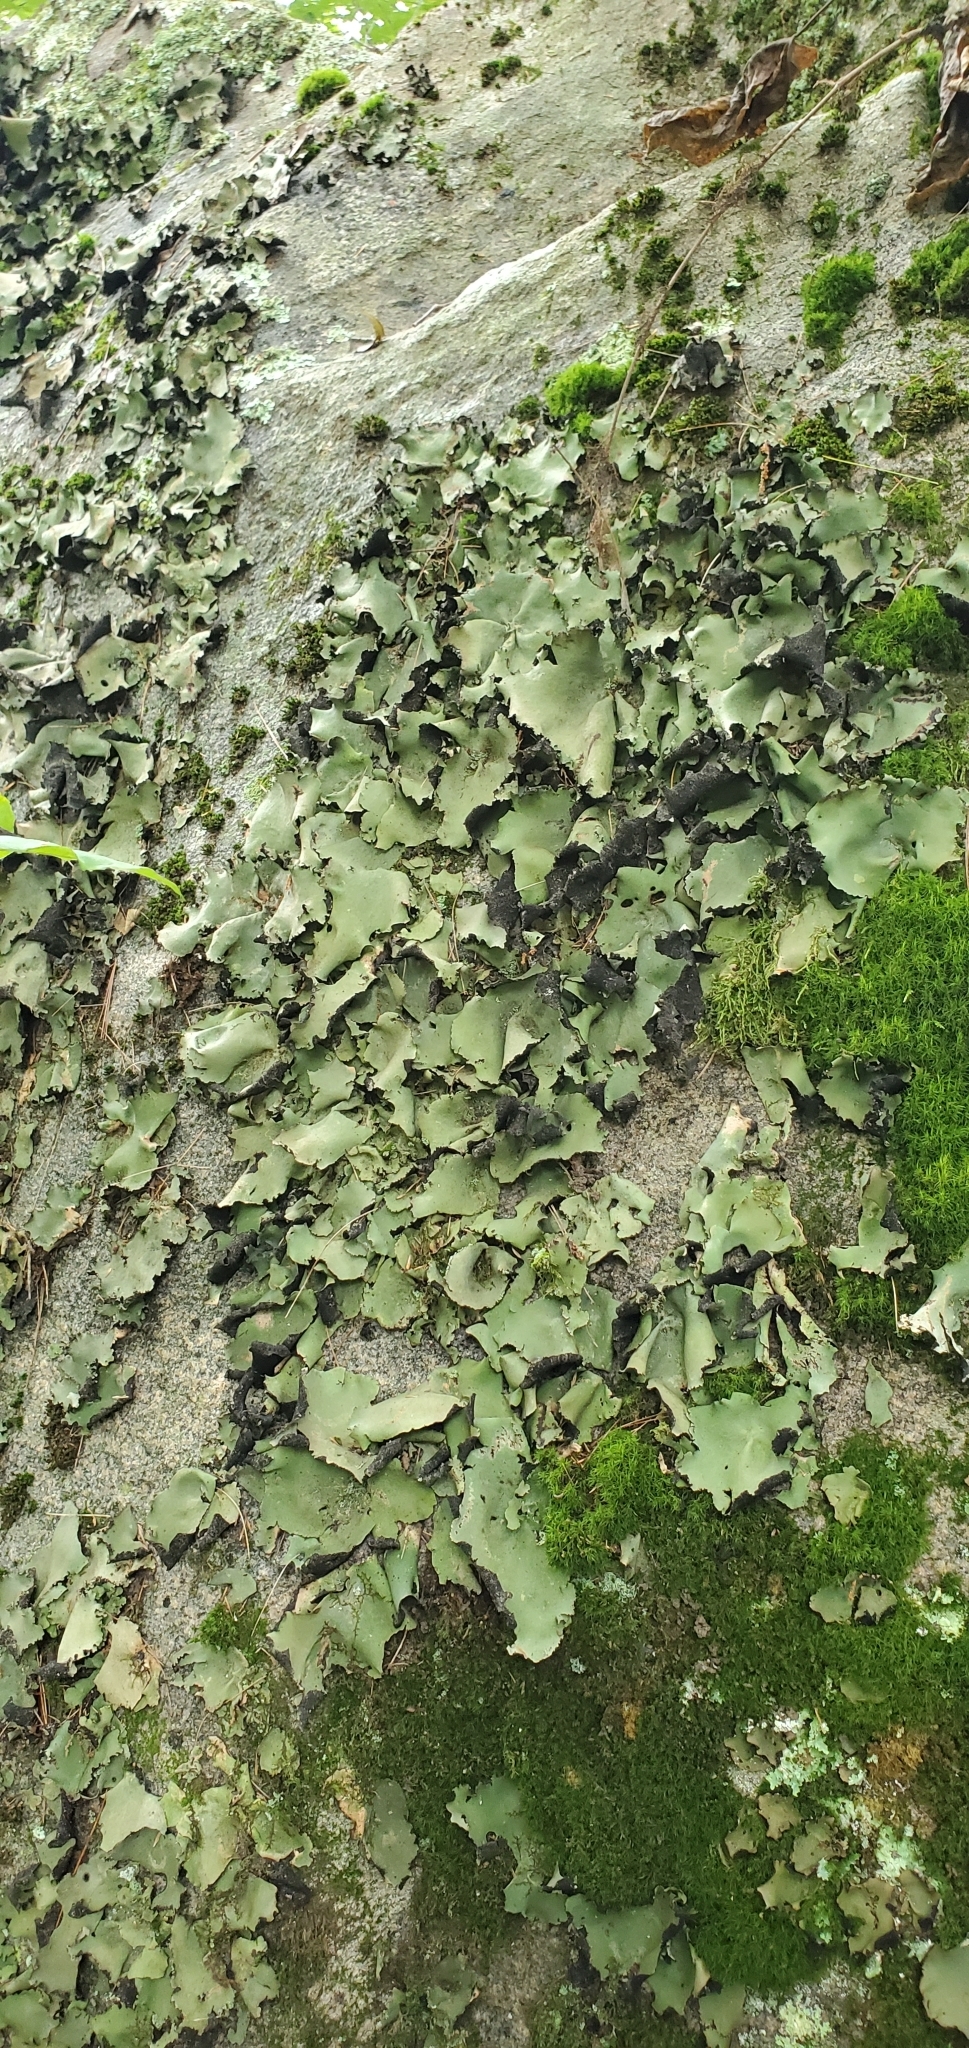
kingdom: Fungi
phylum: Ascomycota
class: Lecanoromycetes
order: Umbilicariales
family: Umbilicariaceae
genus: Umbilicaria
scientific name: Umbilicaria mammulata
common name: Smooth rock tripe
